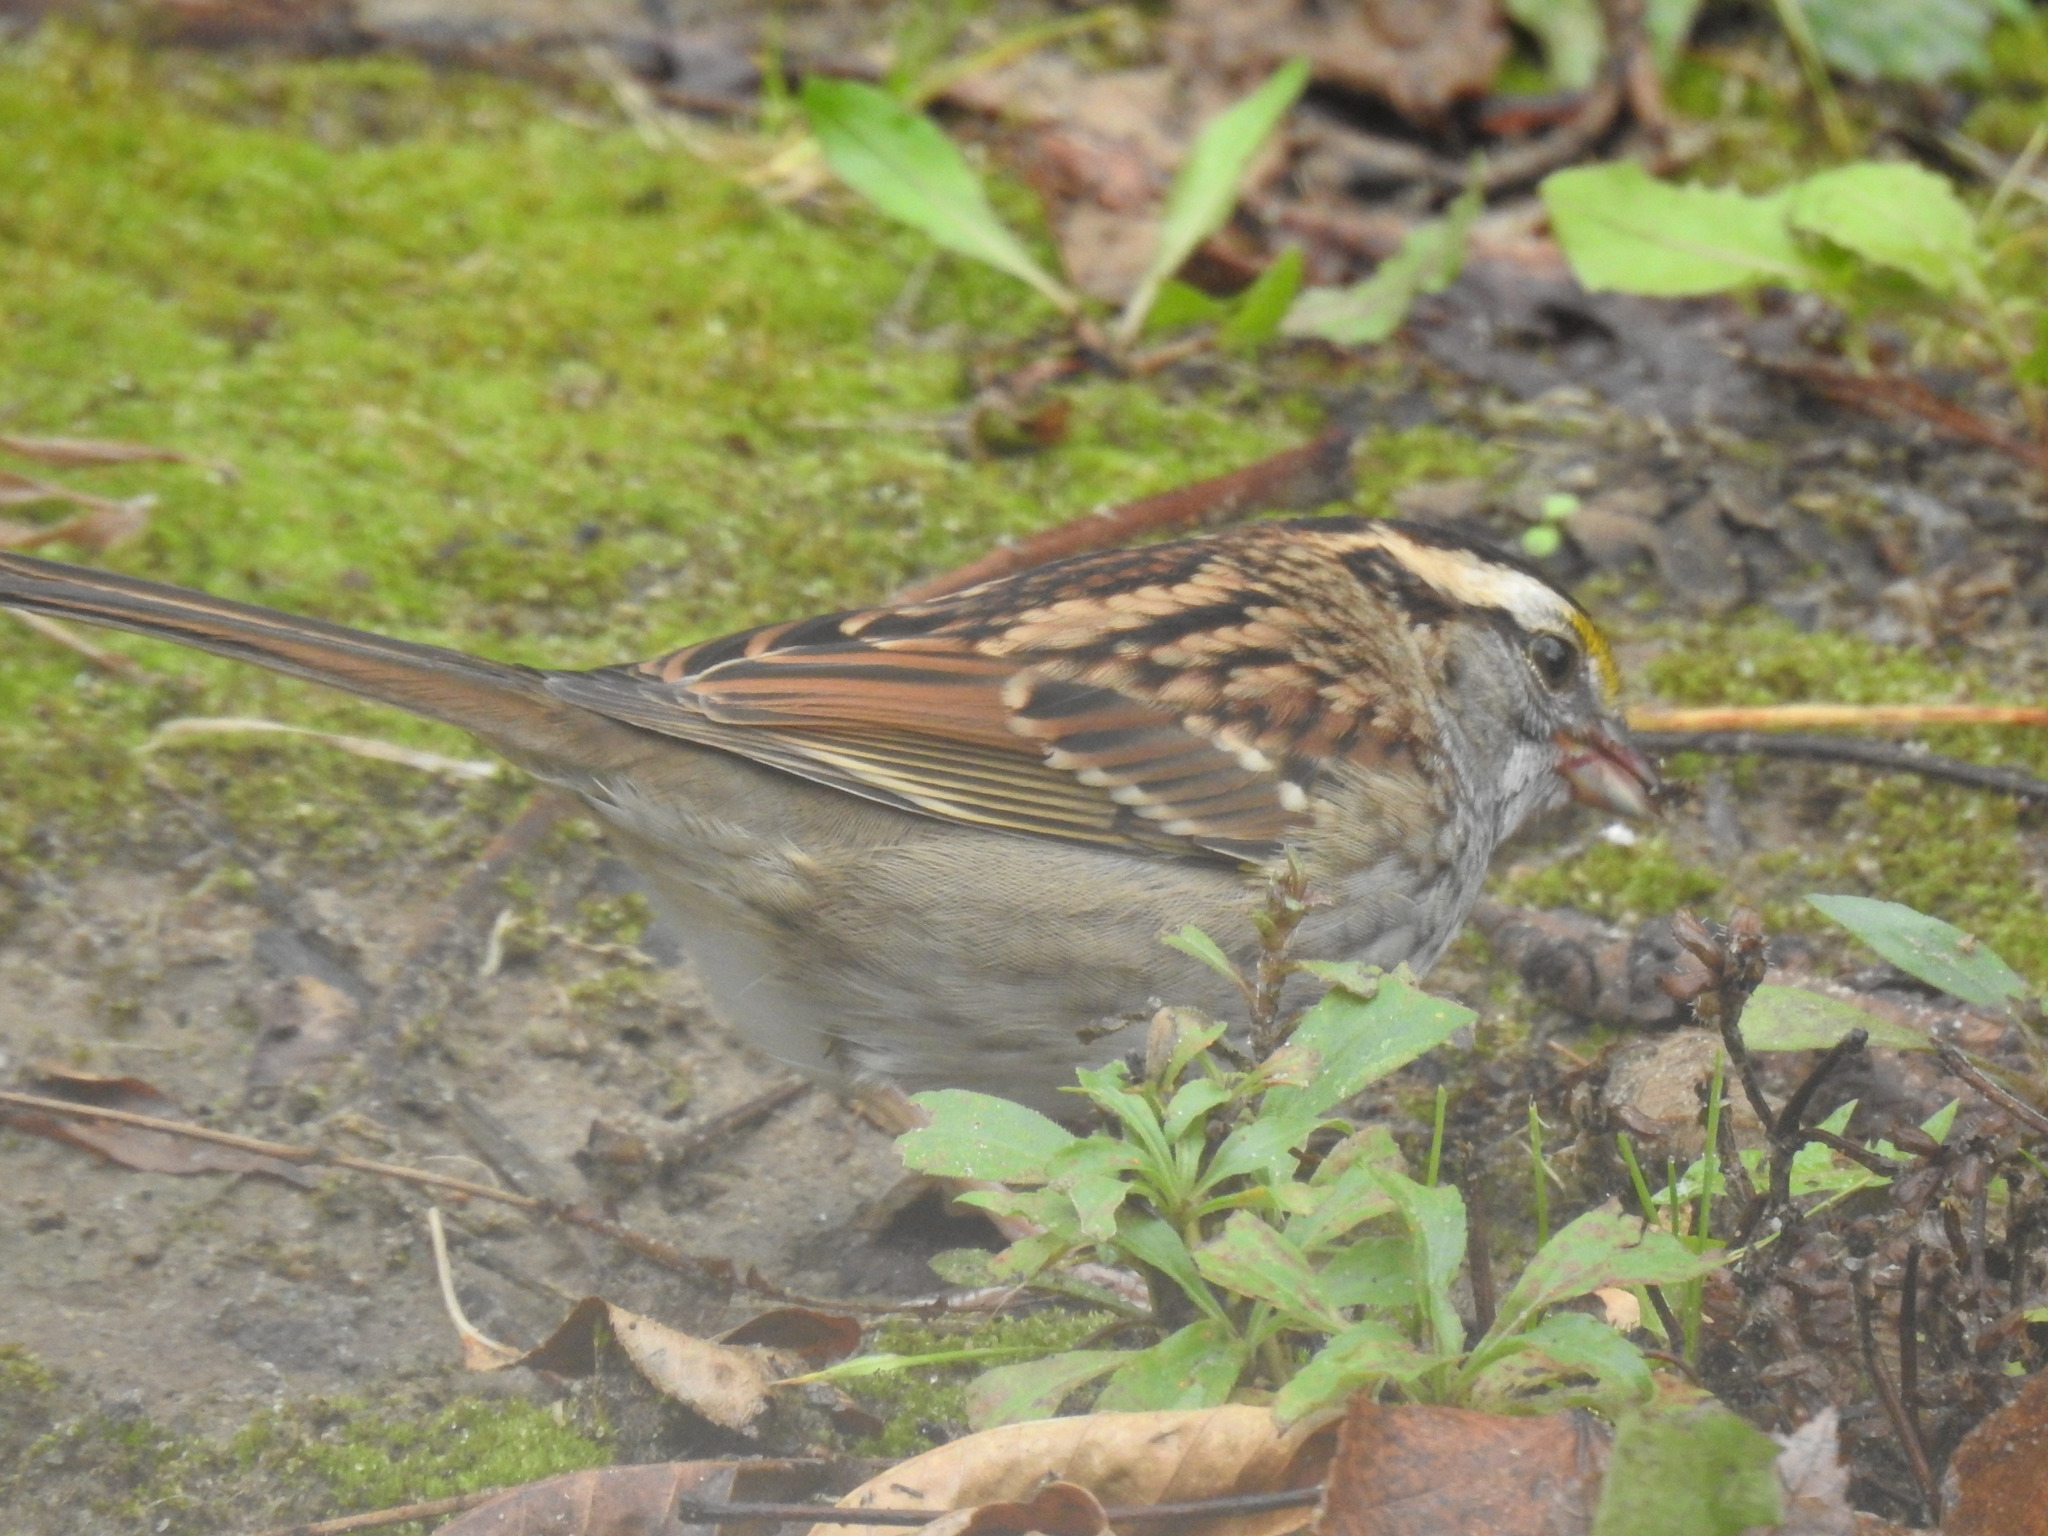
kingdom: Animalia
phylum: Chordata
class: Aves
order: Passeriformes
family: Passerellidae
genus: Zonotrichia
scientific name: Zonotrichia albicollis
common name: White-throated sparrow
